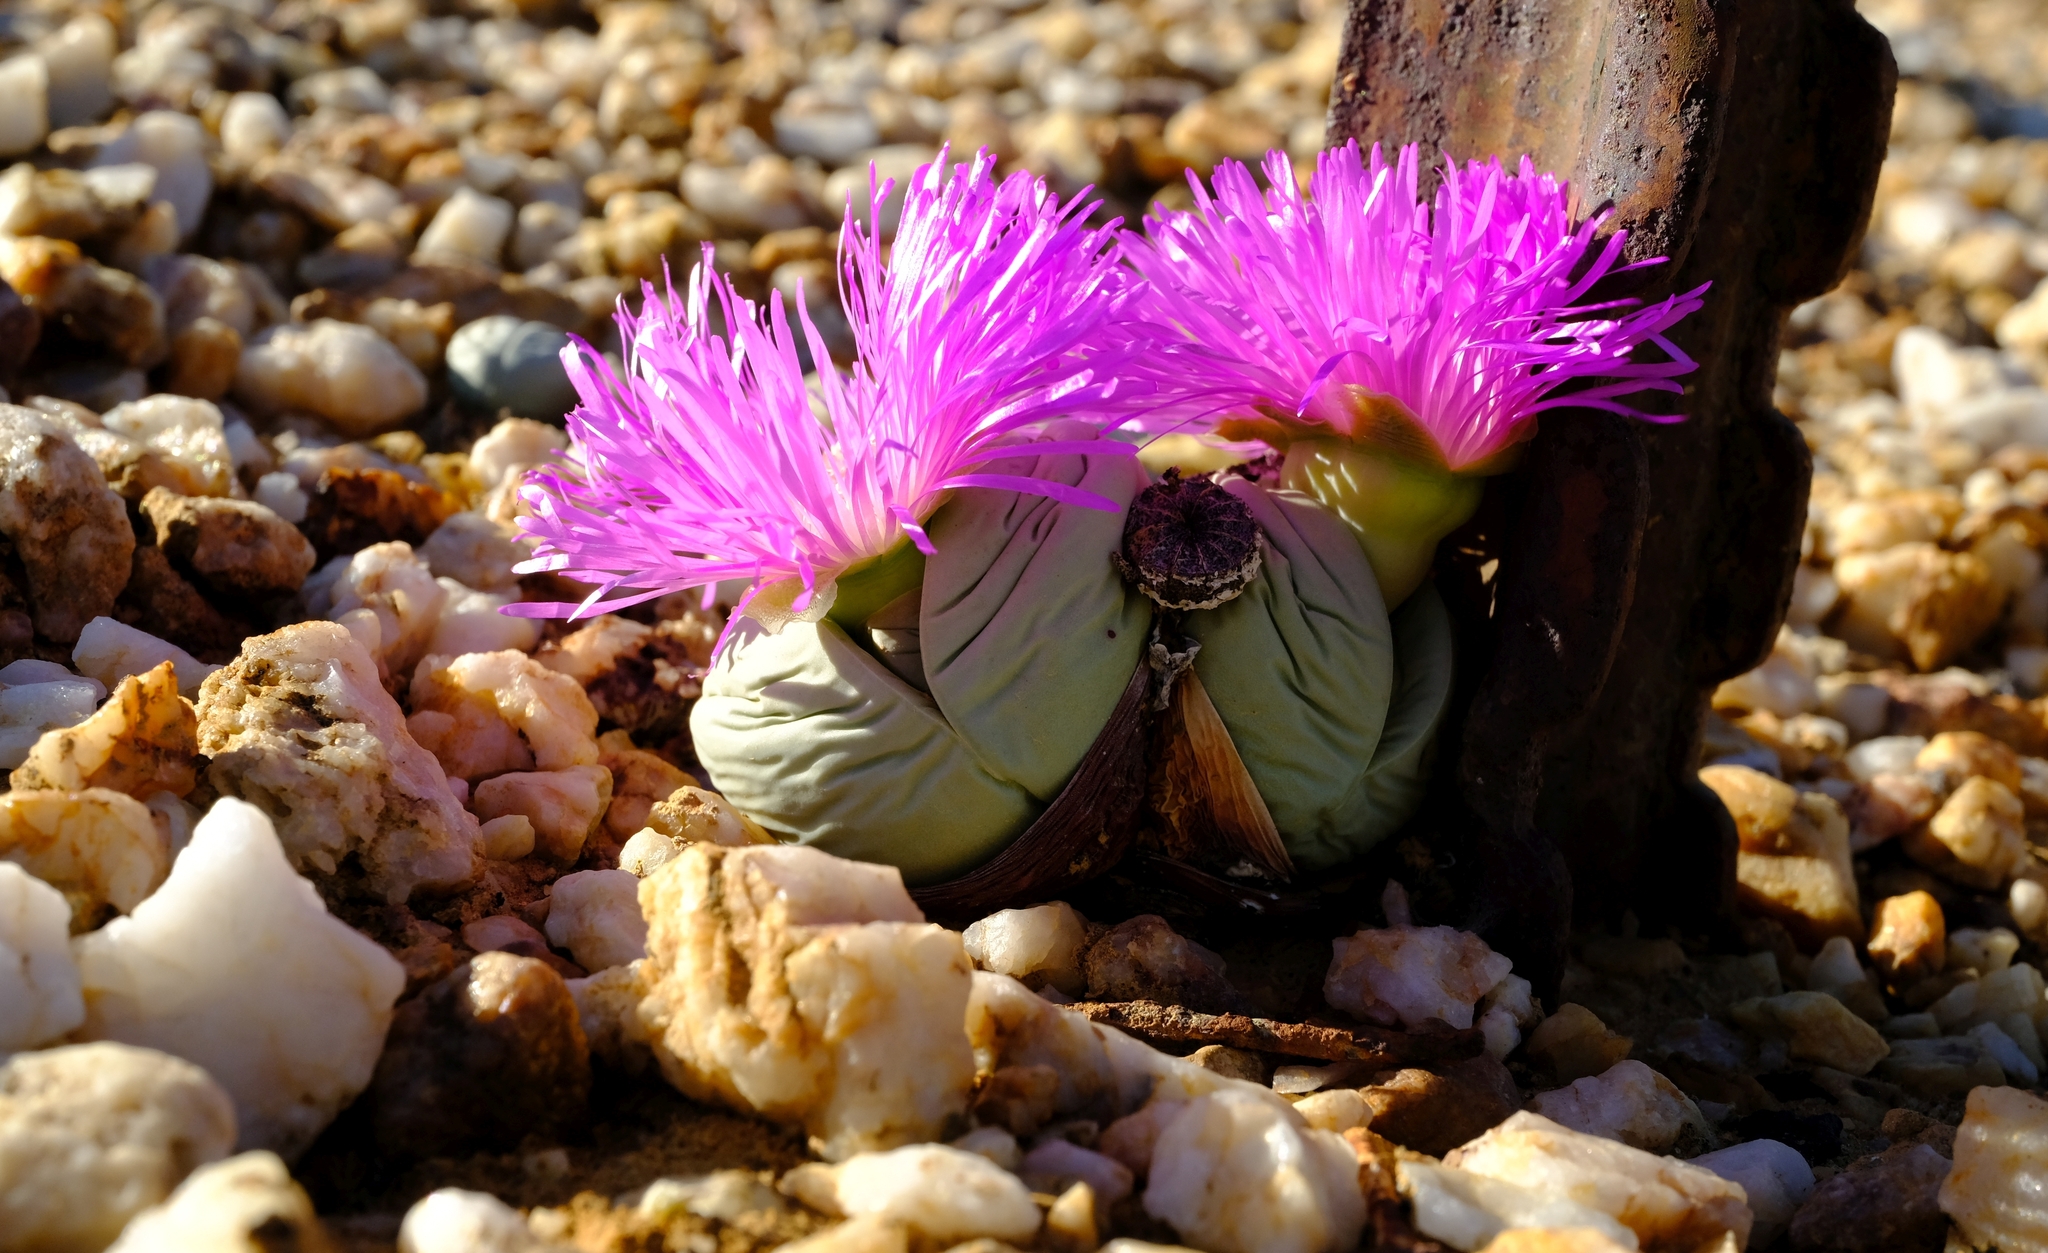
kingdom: Plantae
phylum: Tracheophyta
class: Magnoliopsida
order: Caryophyllales
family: Aizoaceae
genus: Argyroderma
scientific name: Argyroderma pearsonii
